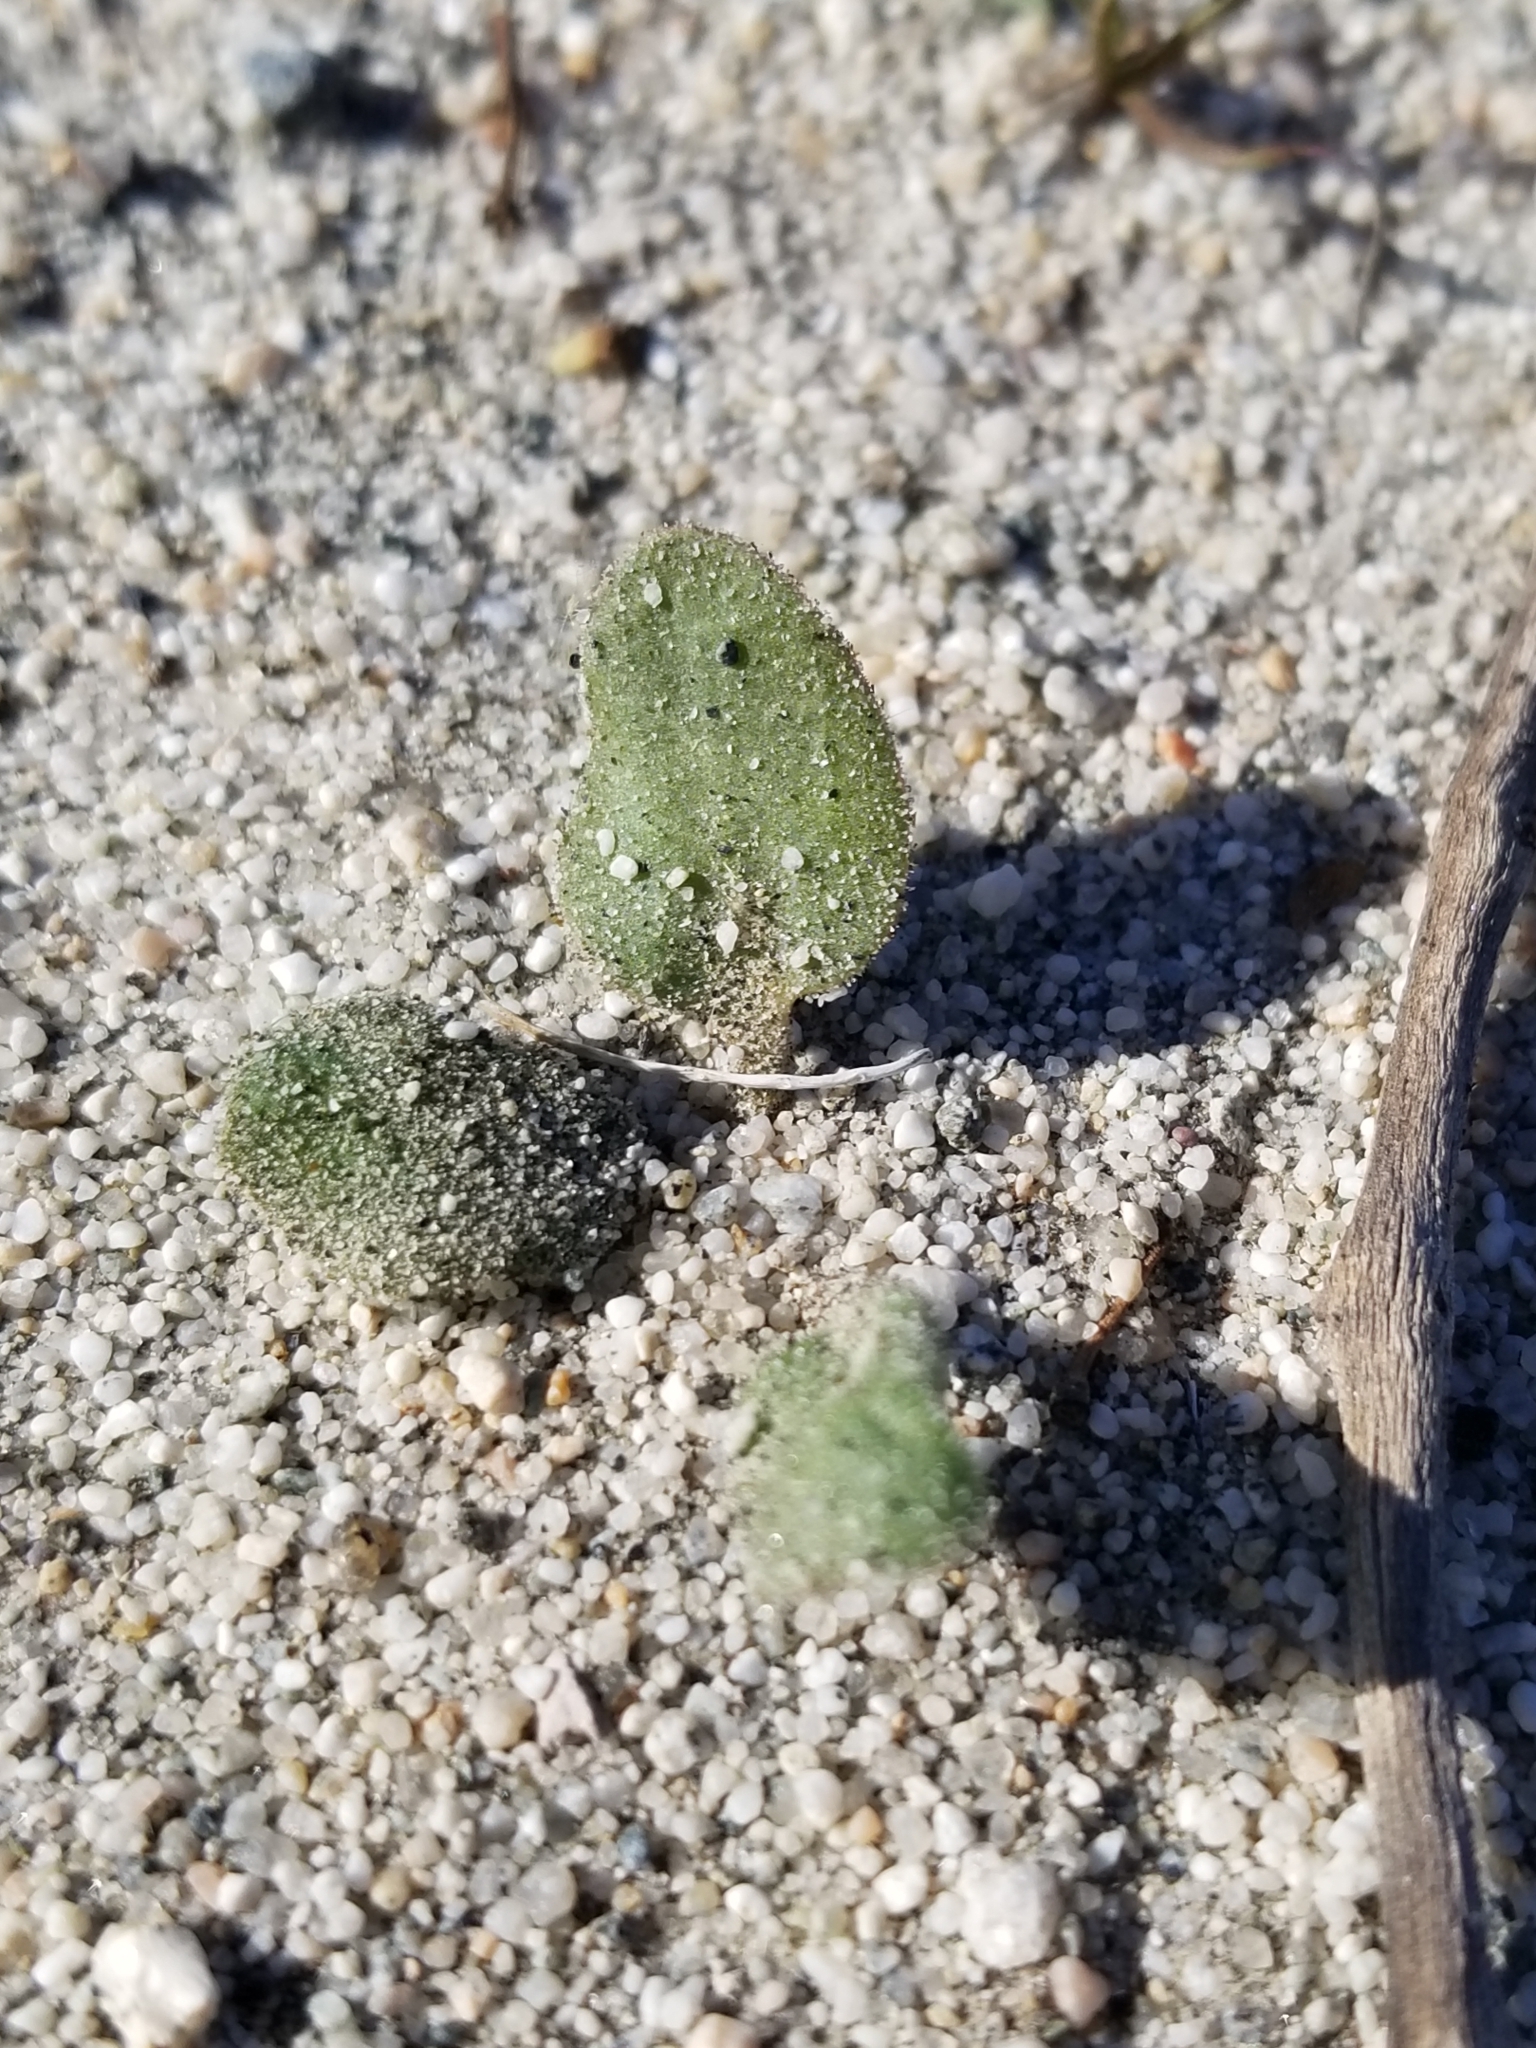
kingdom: Plantae
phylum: Tracheophyta
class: Magnoliopsida
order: Caryophyllales
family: Nyctaginaceae
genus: Abronia
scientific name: Abronia villosa
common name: Desert sand-verbena
